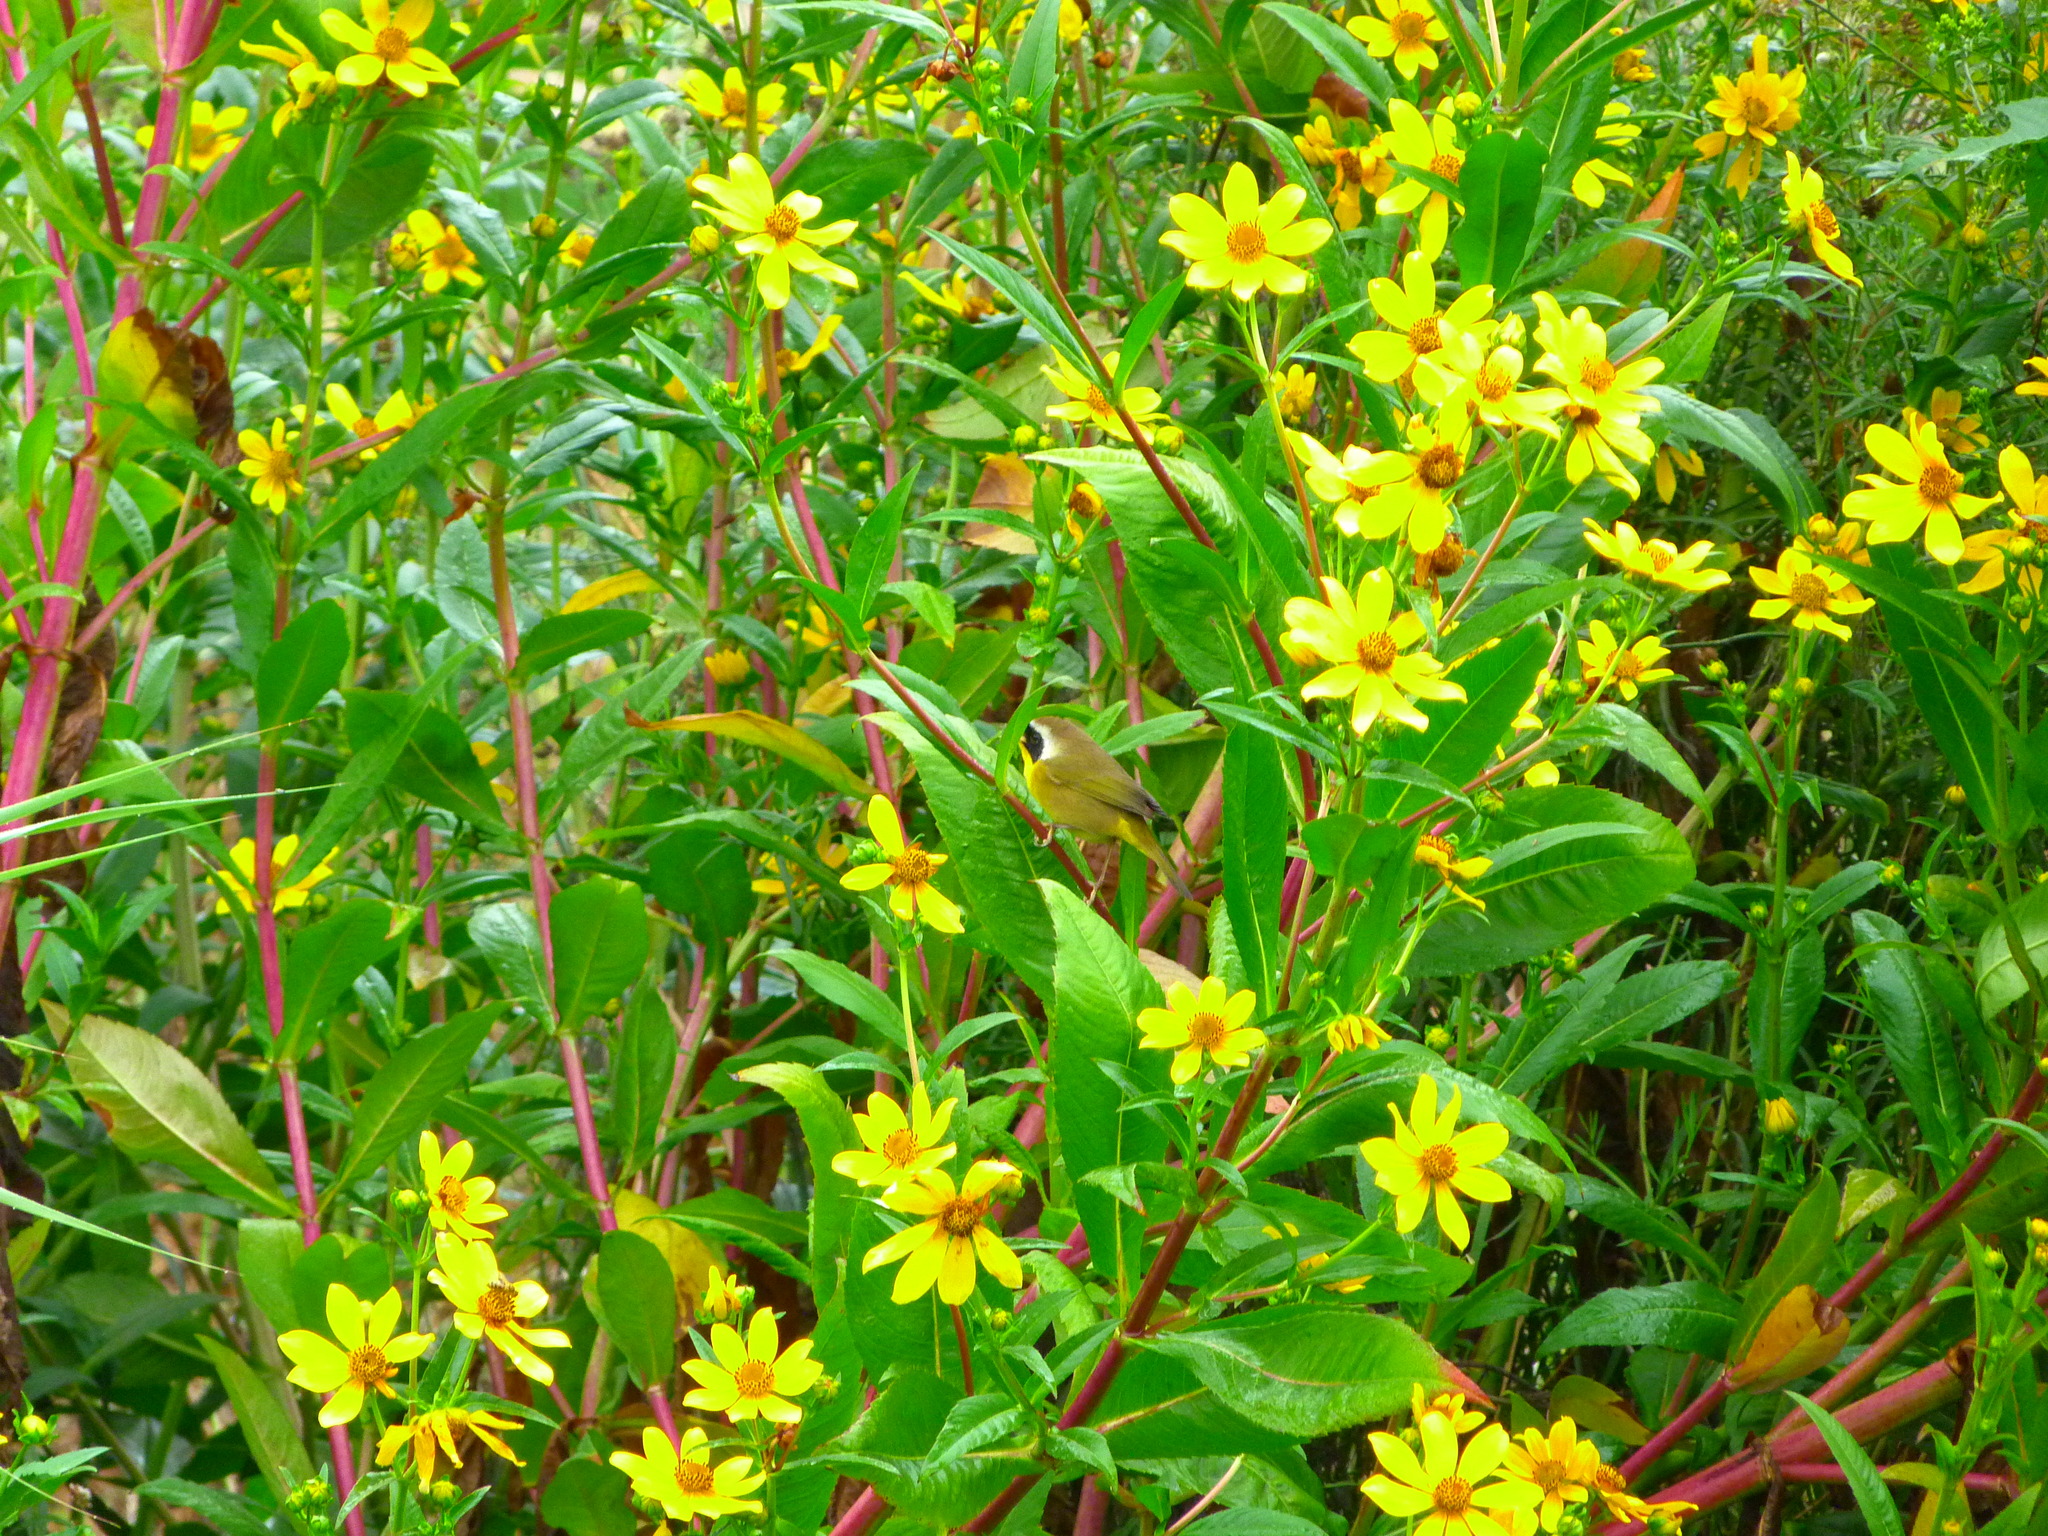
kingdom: Animalia
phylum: Chordata
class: Aves
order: Passeriformes
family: Parulidae
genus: Geothlypis
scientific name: Geothlypis trichas
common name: Common yellowthroat
